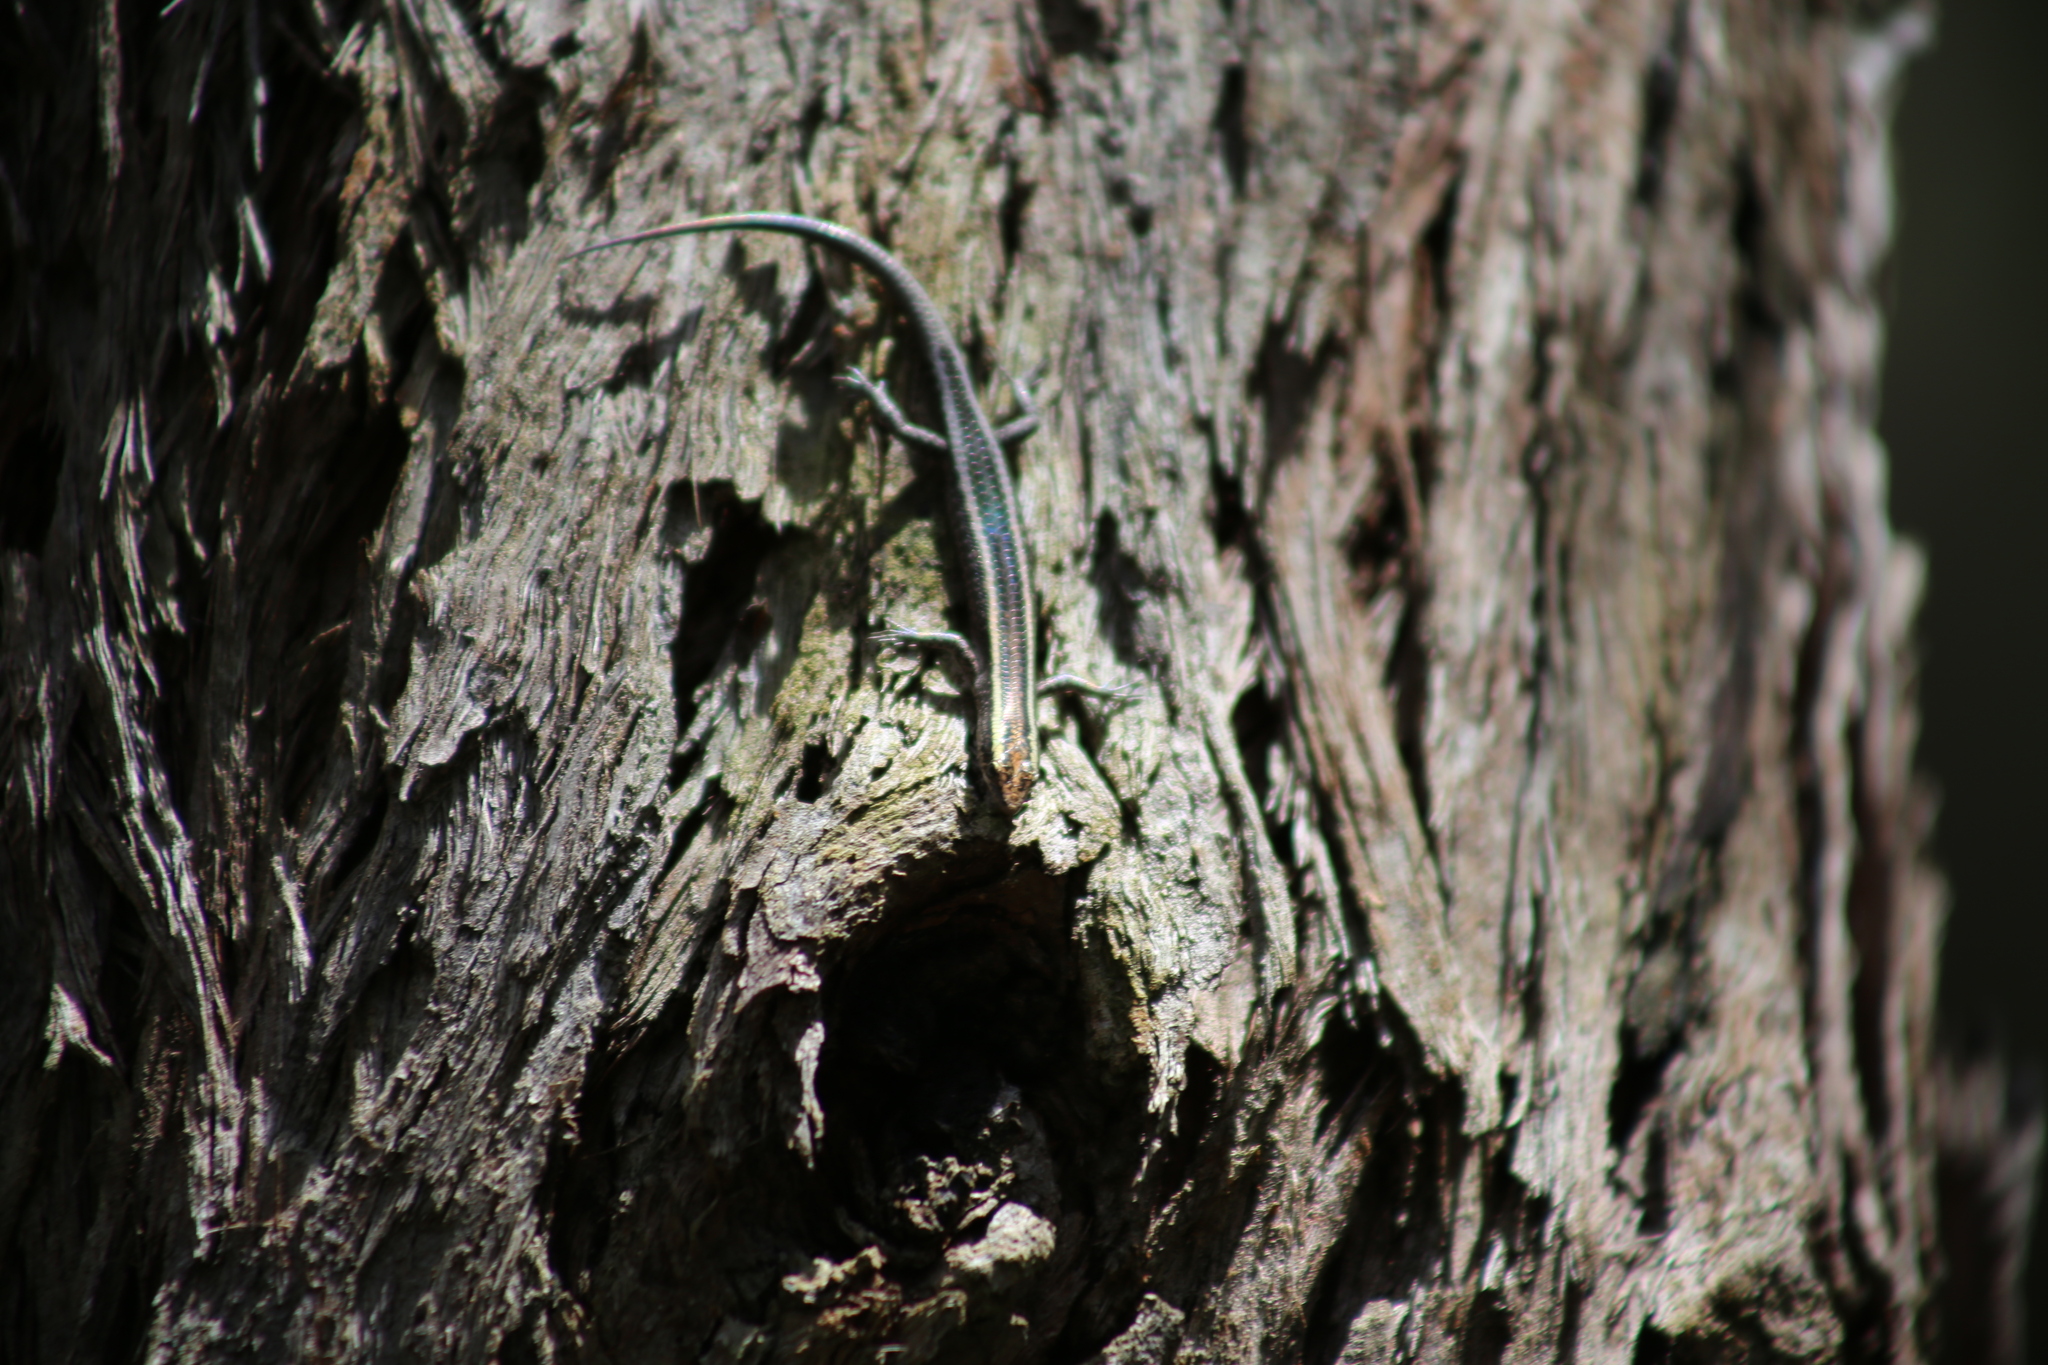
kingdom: Animalia
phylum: Chordata
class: Squamata
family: Scincidae
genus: Cryptoblepharus
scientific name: Cryptoblepharus pulcher
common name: Elegant snake-eyed skink
